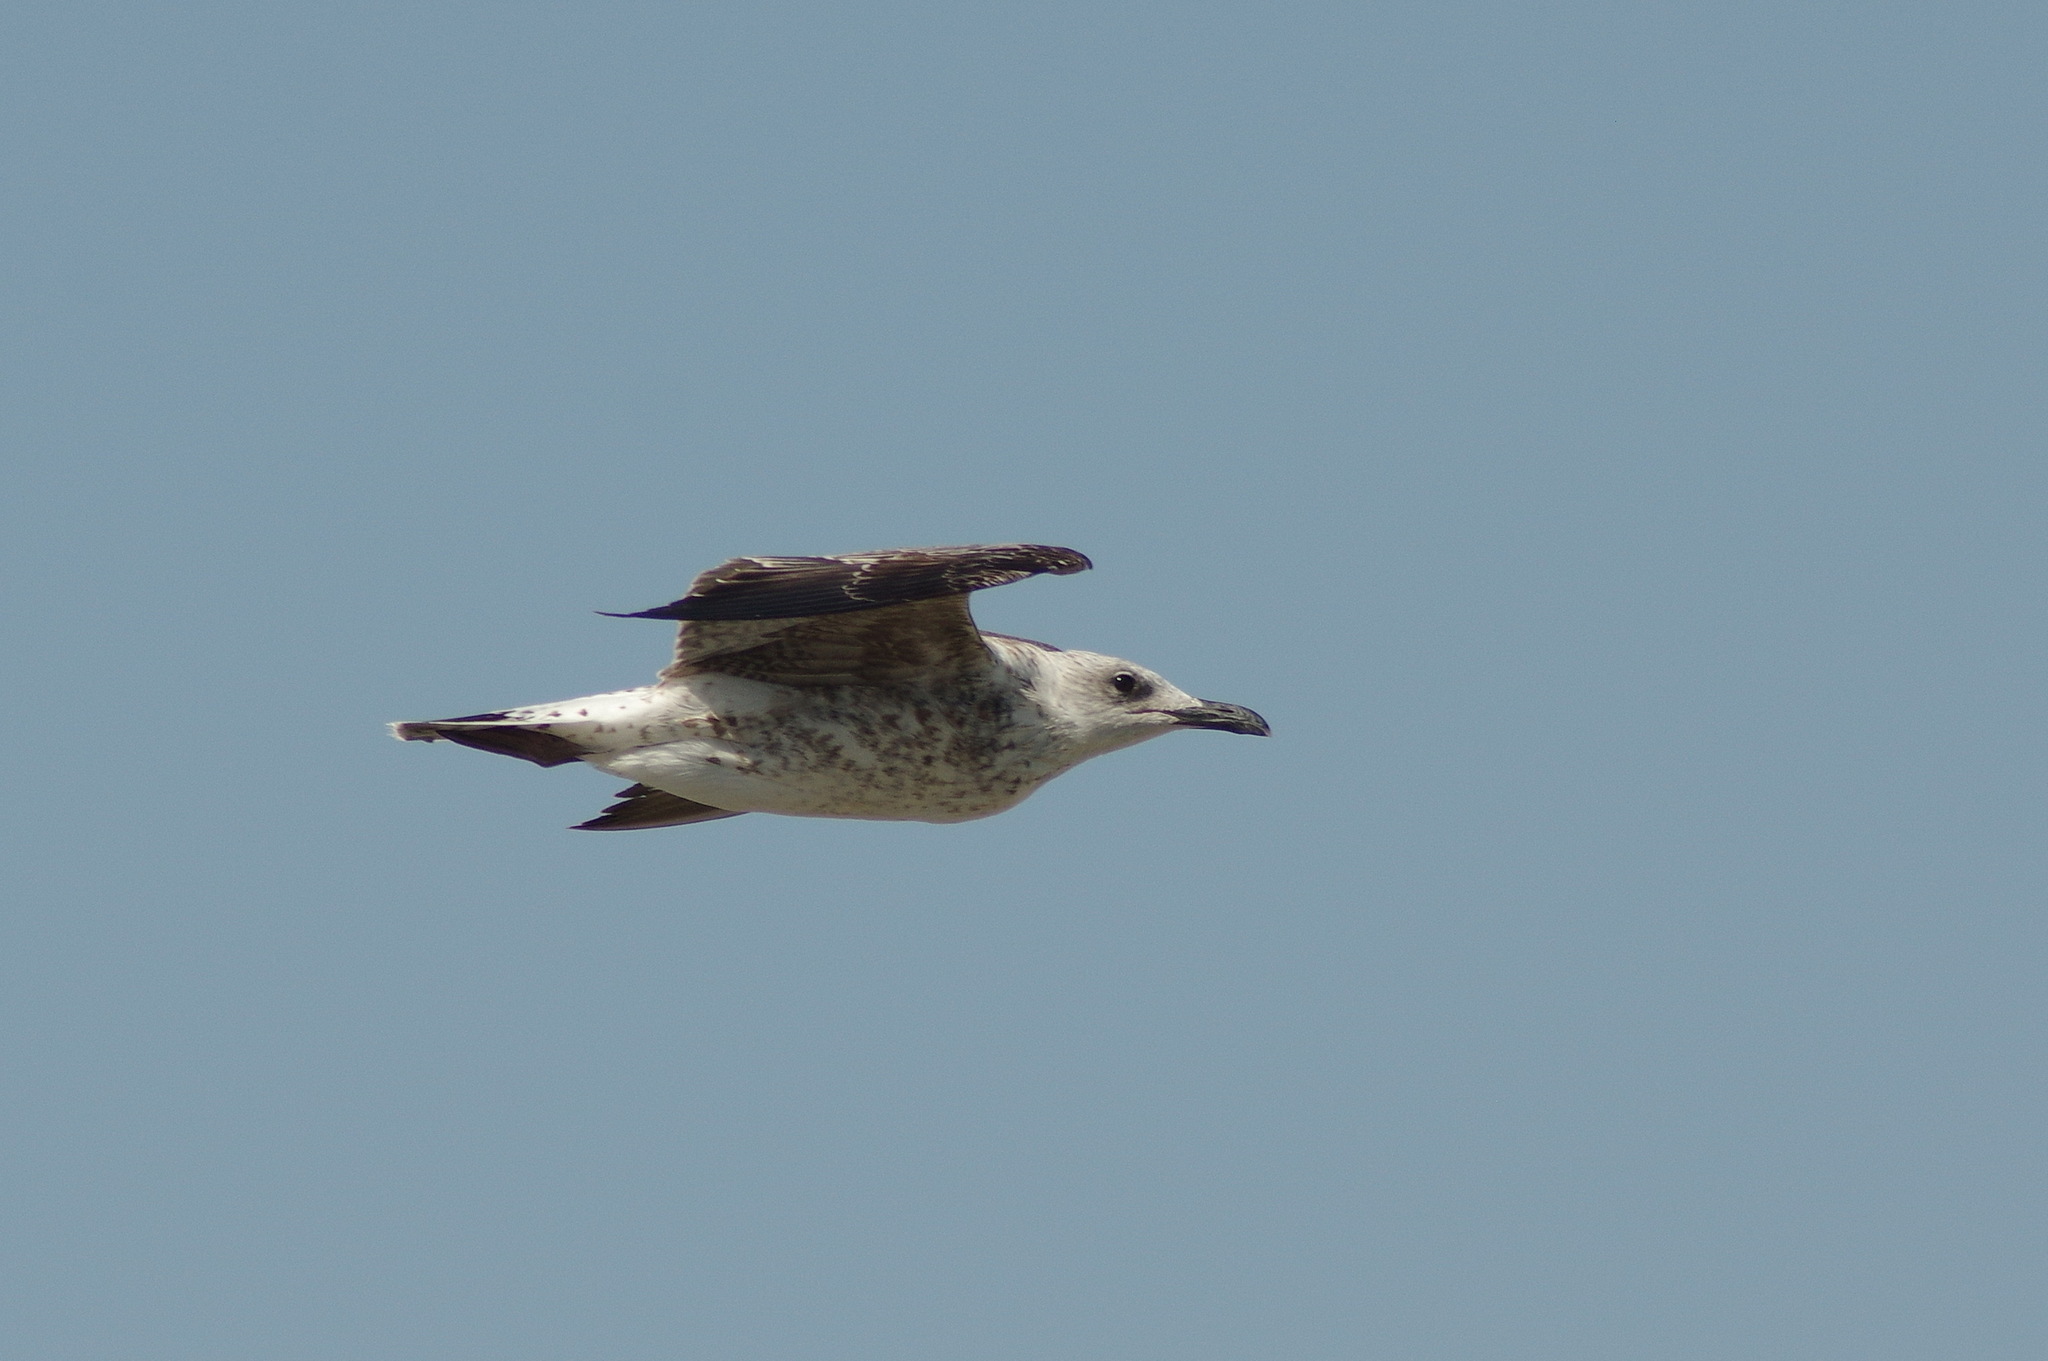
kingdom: Animalia
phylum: Chordata
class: Aves
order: Charadriiformes
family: Laridae
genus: Larus
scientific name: Larus michahellis
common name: Yellow-legged gull
